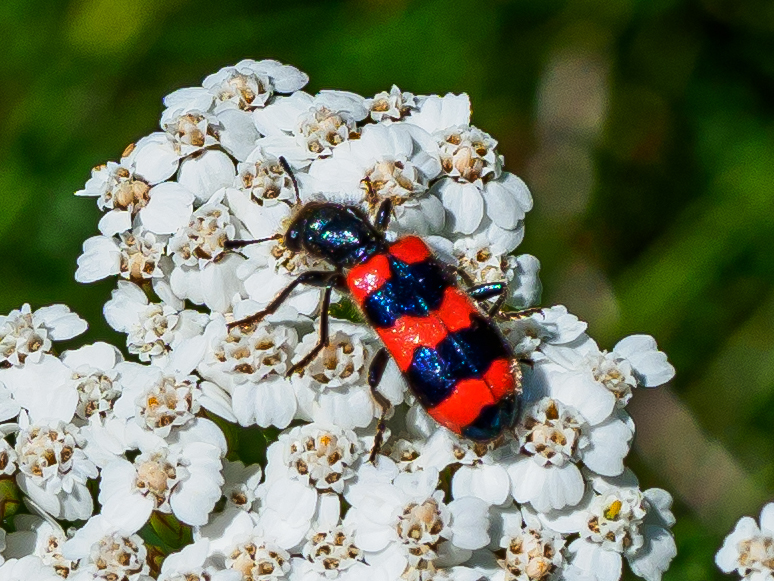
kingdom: Animalia
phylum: Arthropoda
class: Insecta
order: Coleoptera
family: Cleridae
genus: Trichodes
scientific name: Trichodes apiarius
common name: Bee-eating beetle
